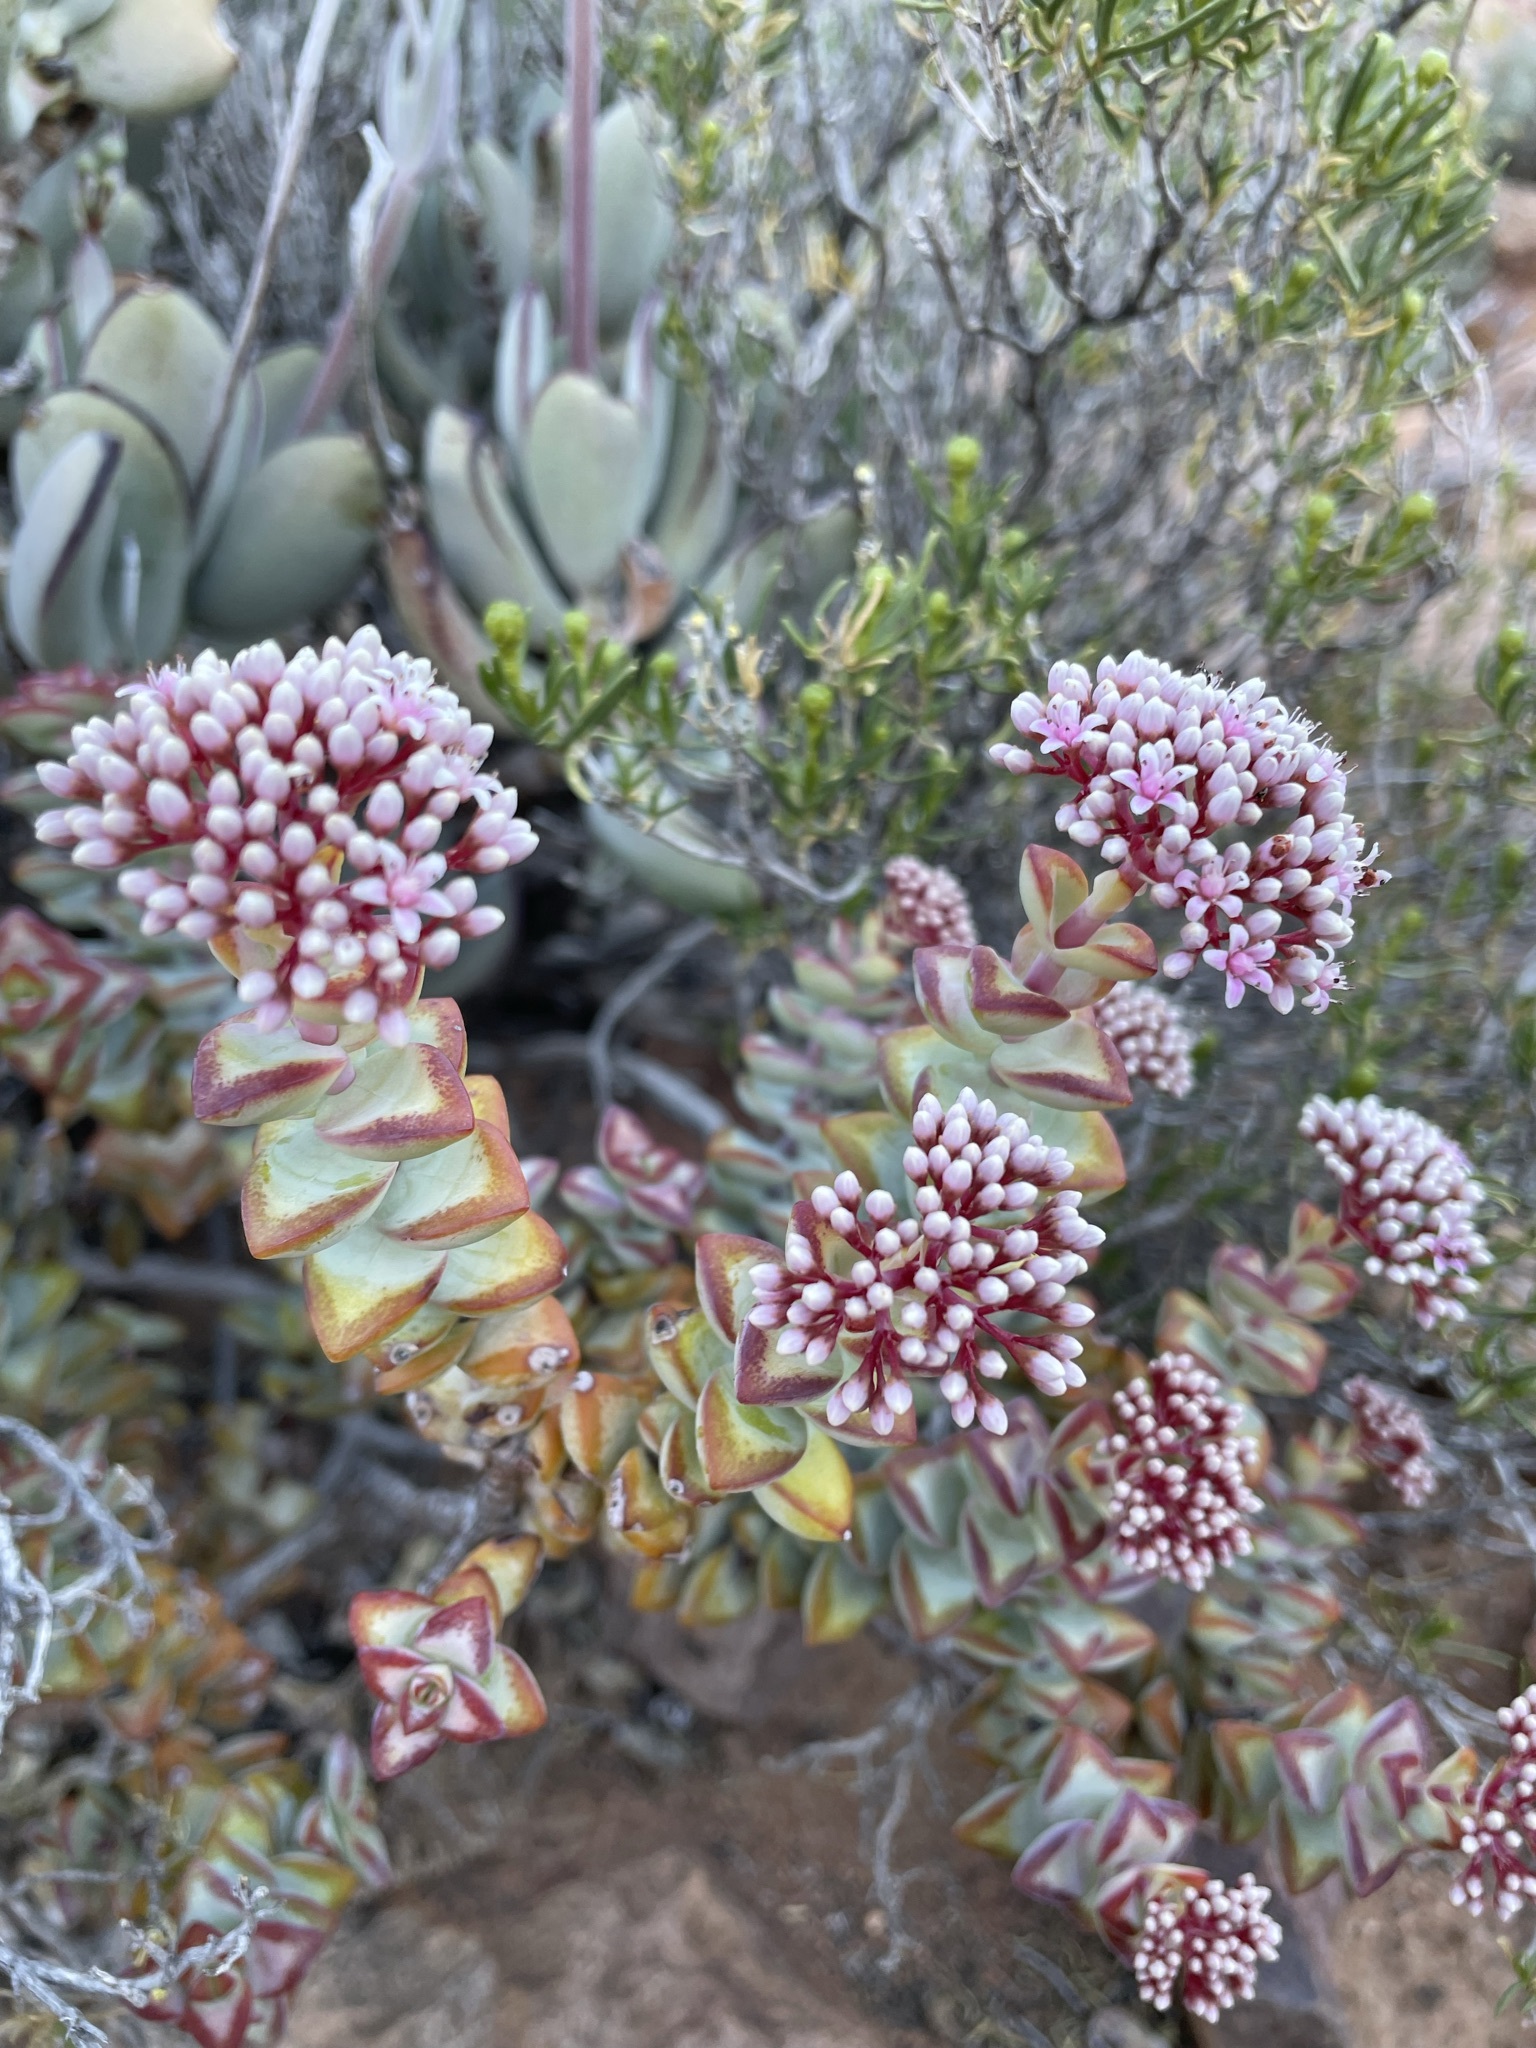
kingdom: Plantae
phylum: Tracheophyta
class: Magnoliopsida
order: Saxifragales
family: Crassulaceae
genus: Crassula
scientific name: Crassula rupestris
